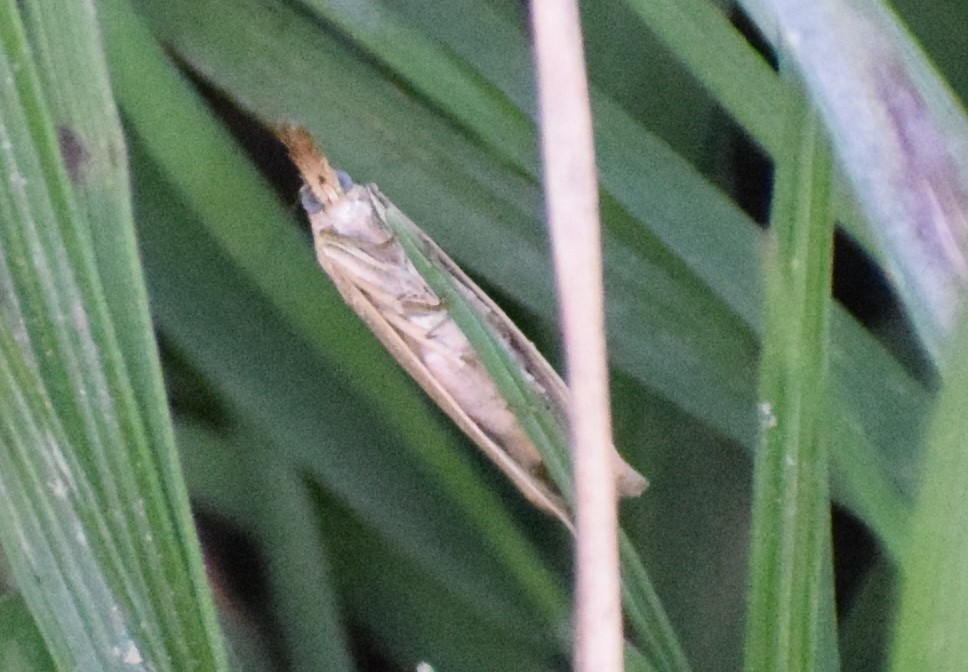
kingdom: Animalia
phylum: Arthropoda
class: Insecta
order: Lepidoptera
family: Crambidae
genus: Agriphila
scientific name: Agriphila straminella
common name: Straw grass-veneer
